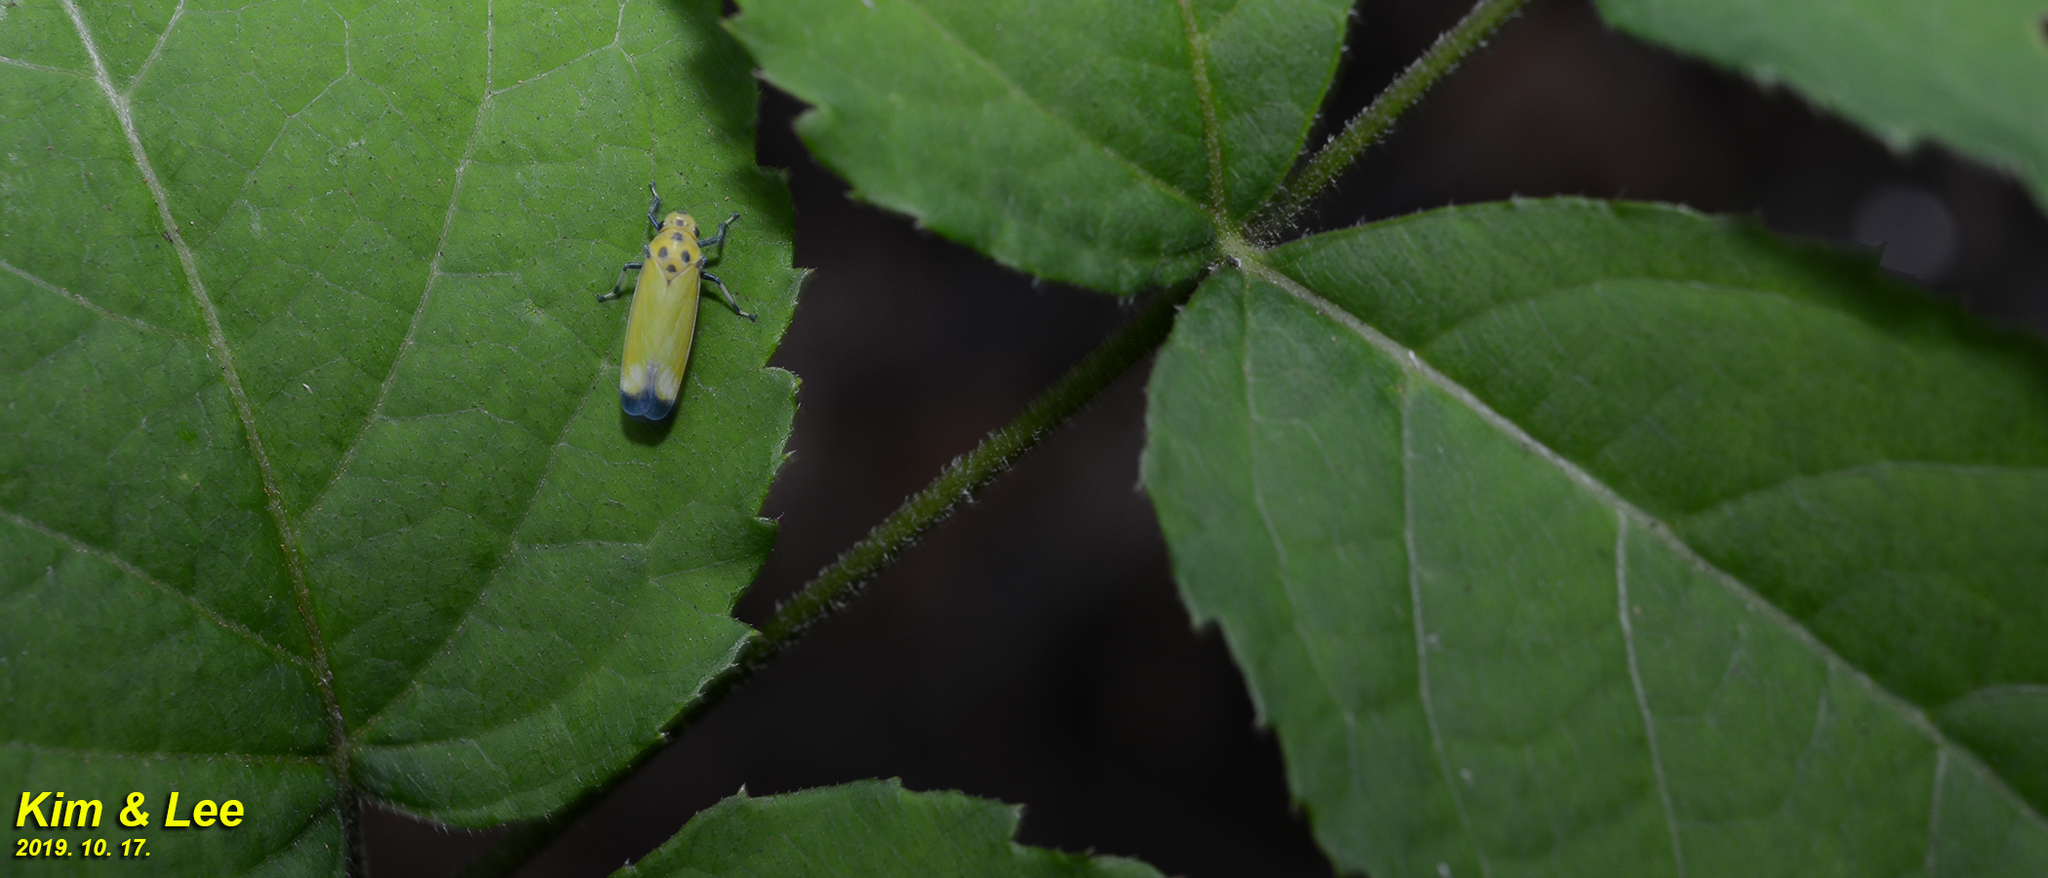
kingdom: Animalia
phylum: Arthropoda
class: Insecta
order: Hemiptera
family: Cicadellidae
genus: Bothrogonia
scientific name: Bothrogonia ferruginea
